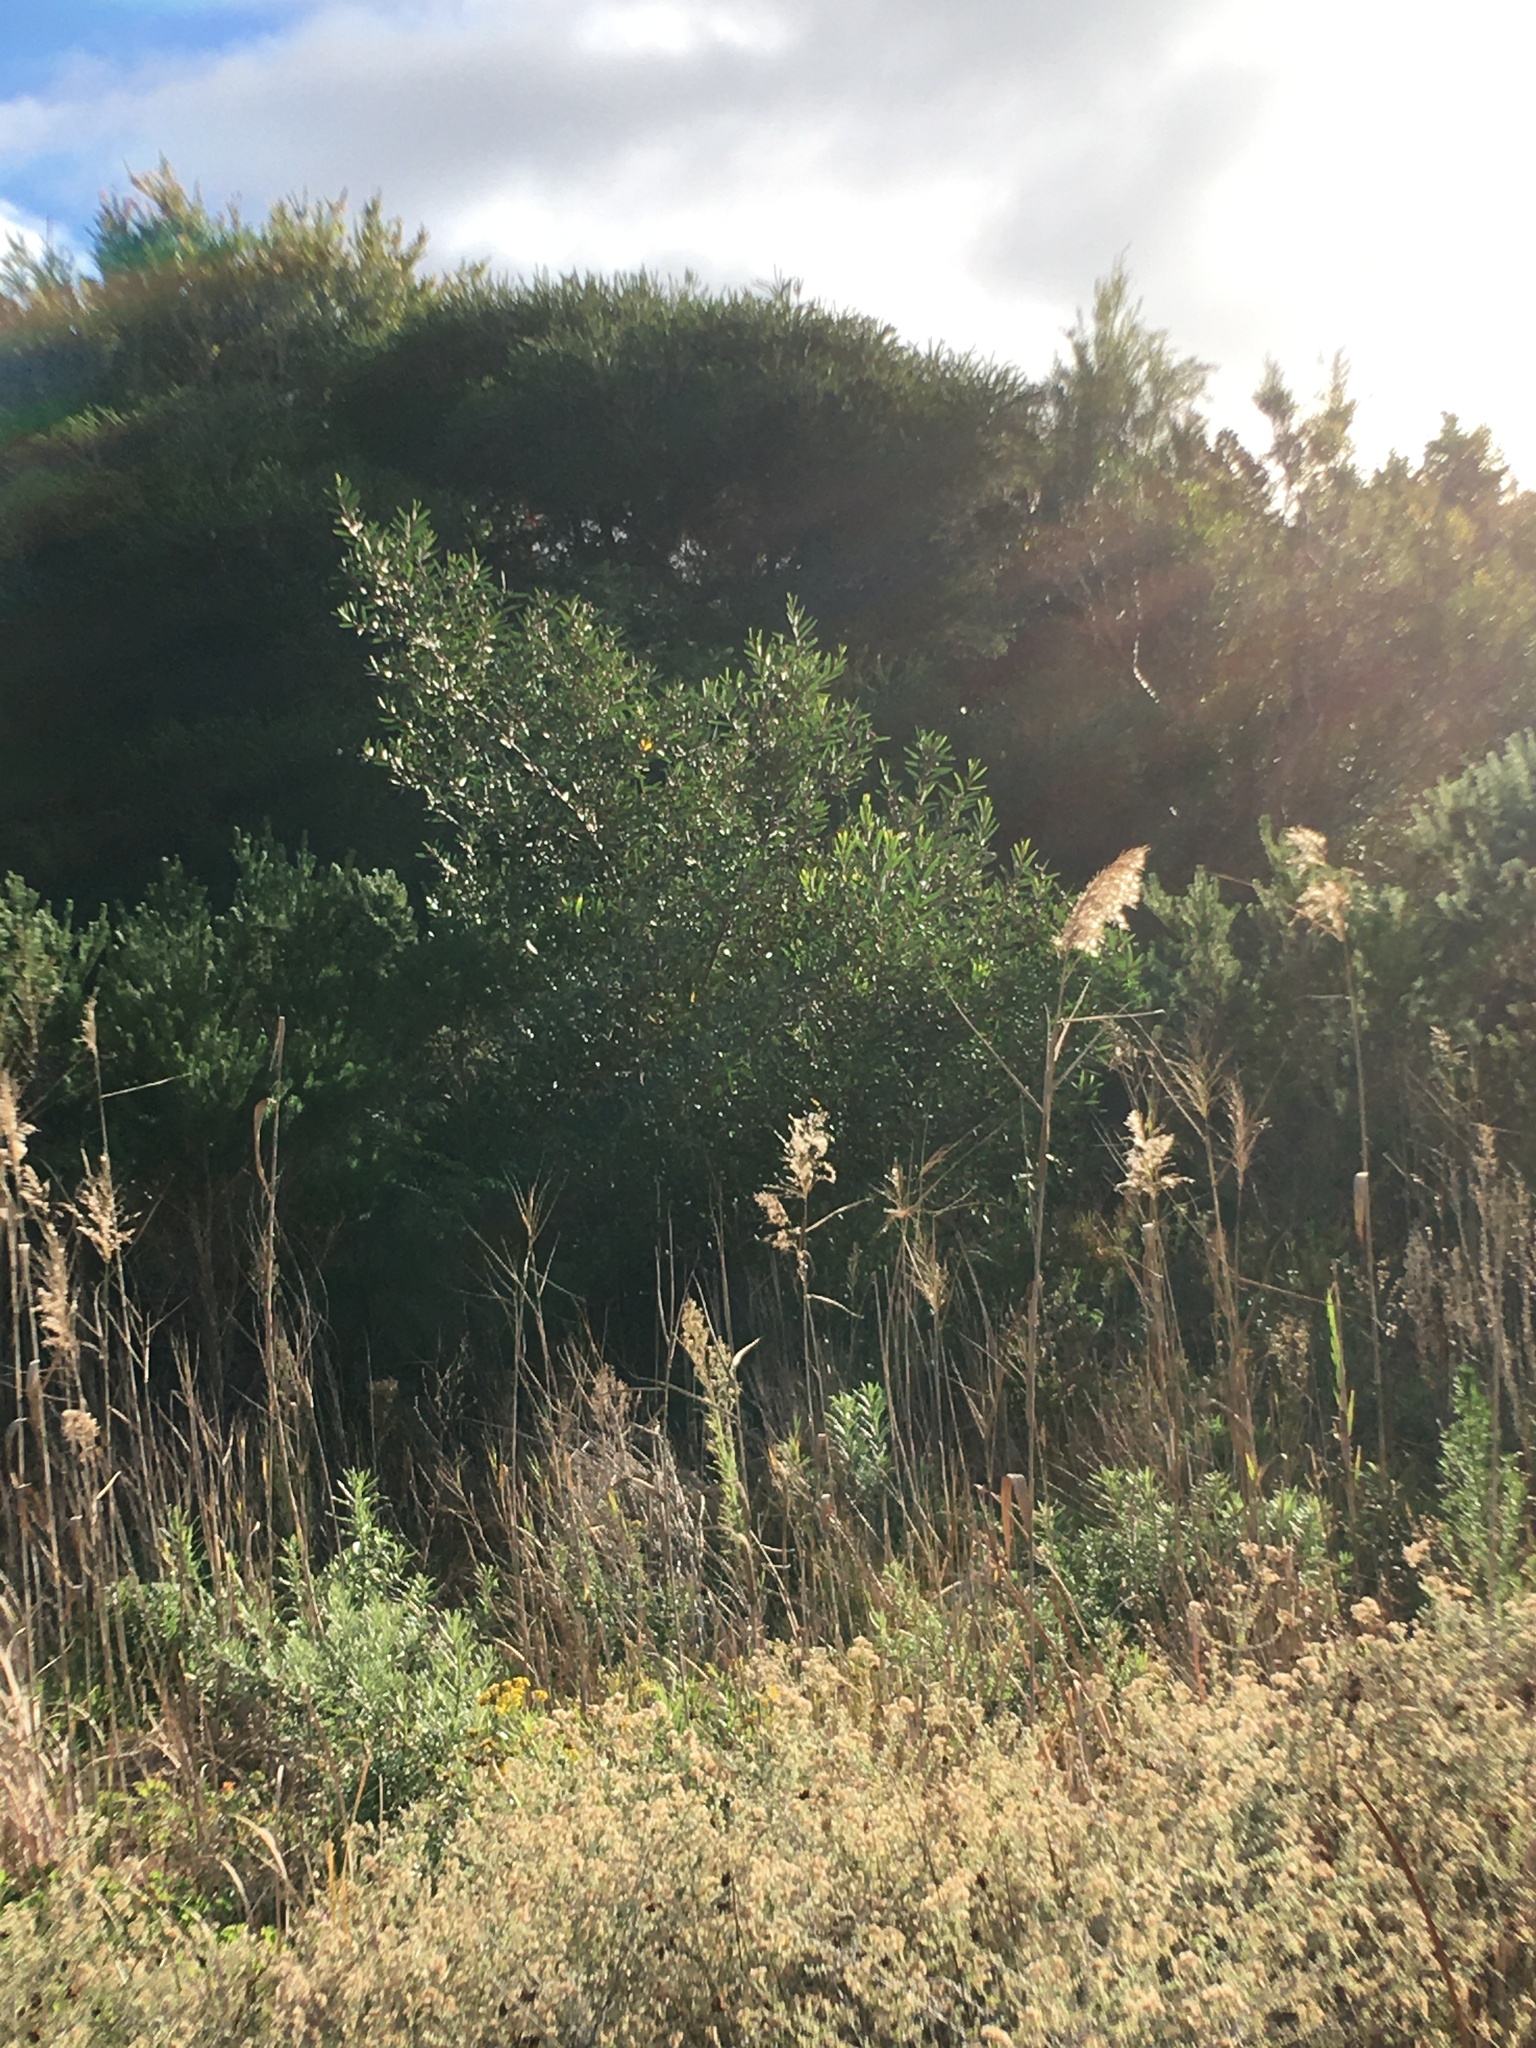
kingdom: Plantae
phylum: Tracheophyta
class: Magnoliopsida
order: Fabales
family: Fabaceae
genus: Acacia
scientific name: Acacia longifolia
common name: Sydney golden wattle
